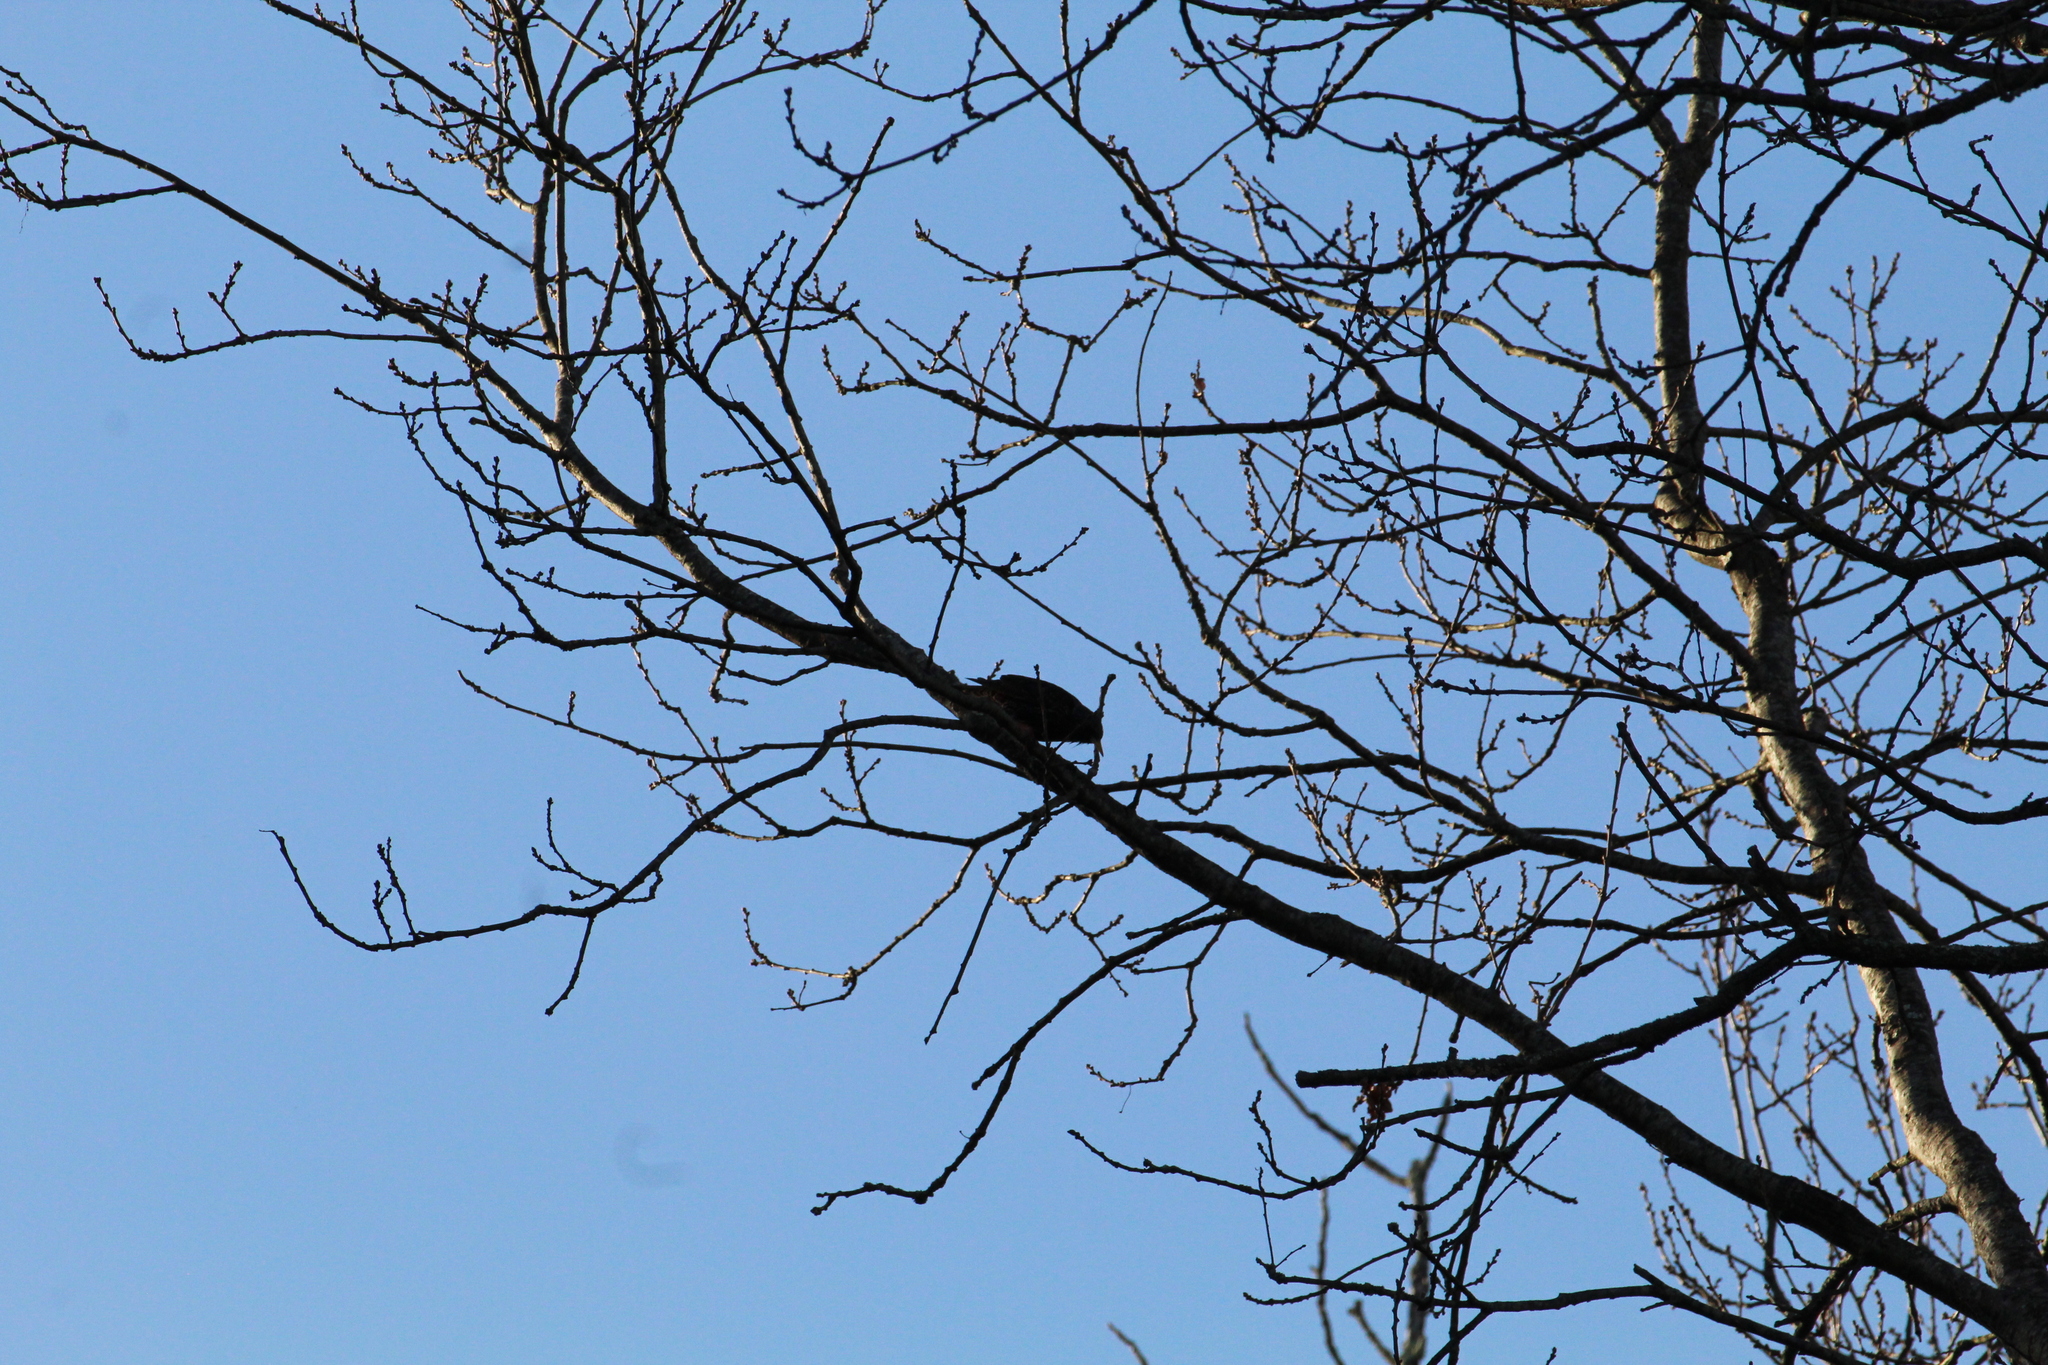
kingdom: Animalia
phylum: Chordata
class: Aves
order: Passeriformes
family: Sturnidae
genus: Sturnus
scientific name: Sturnus vulgaris
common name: Common starling
